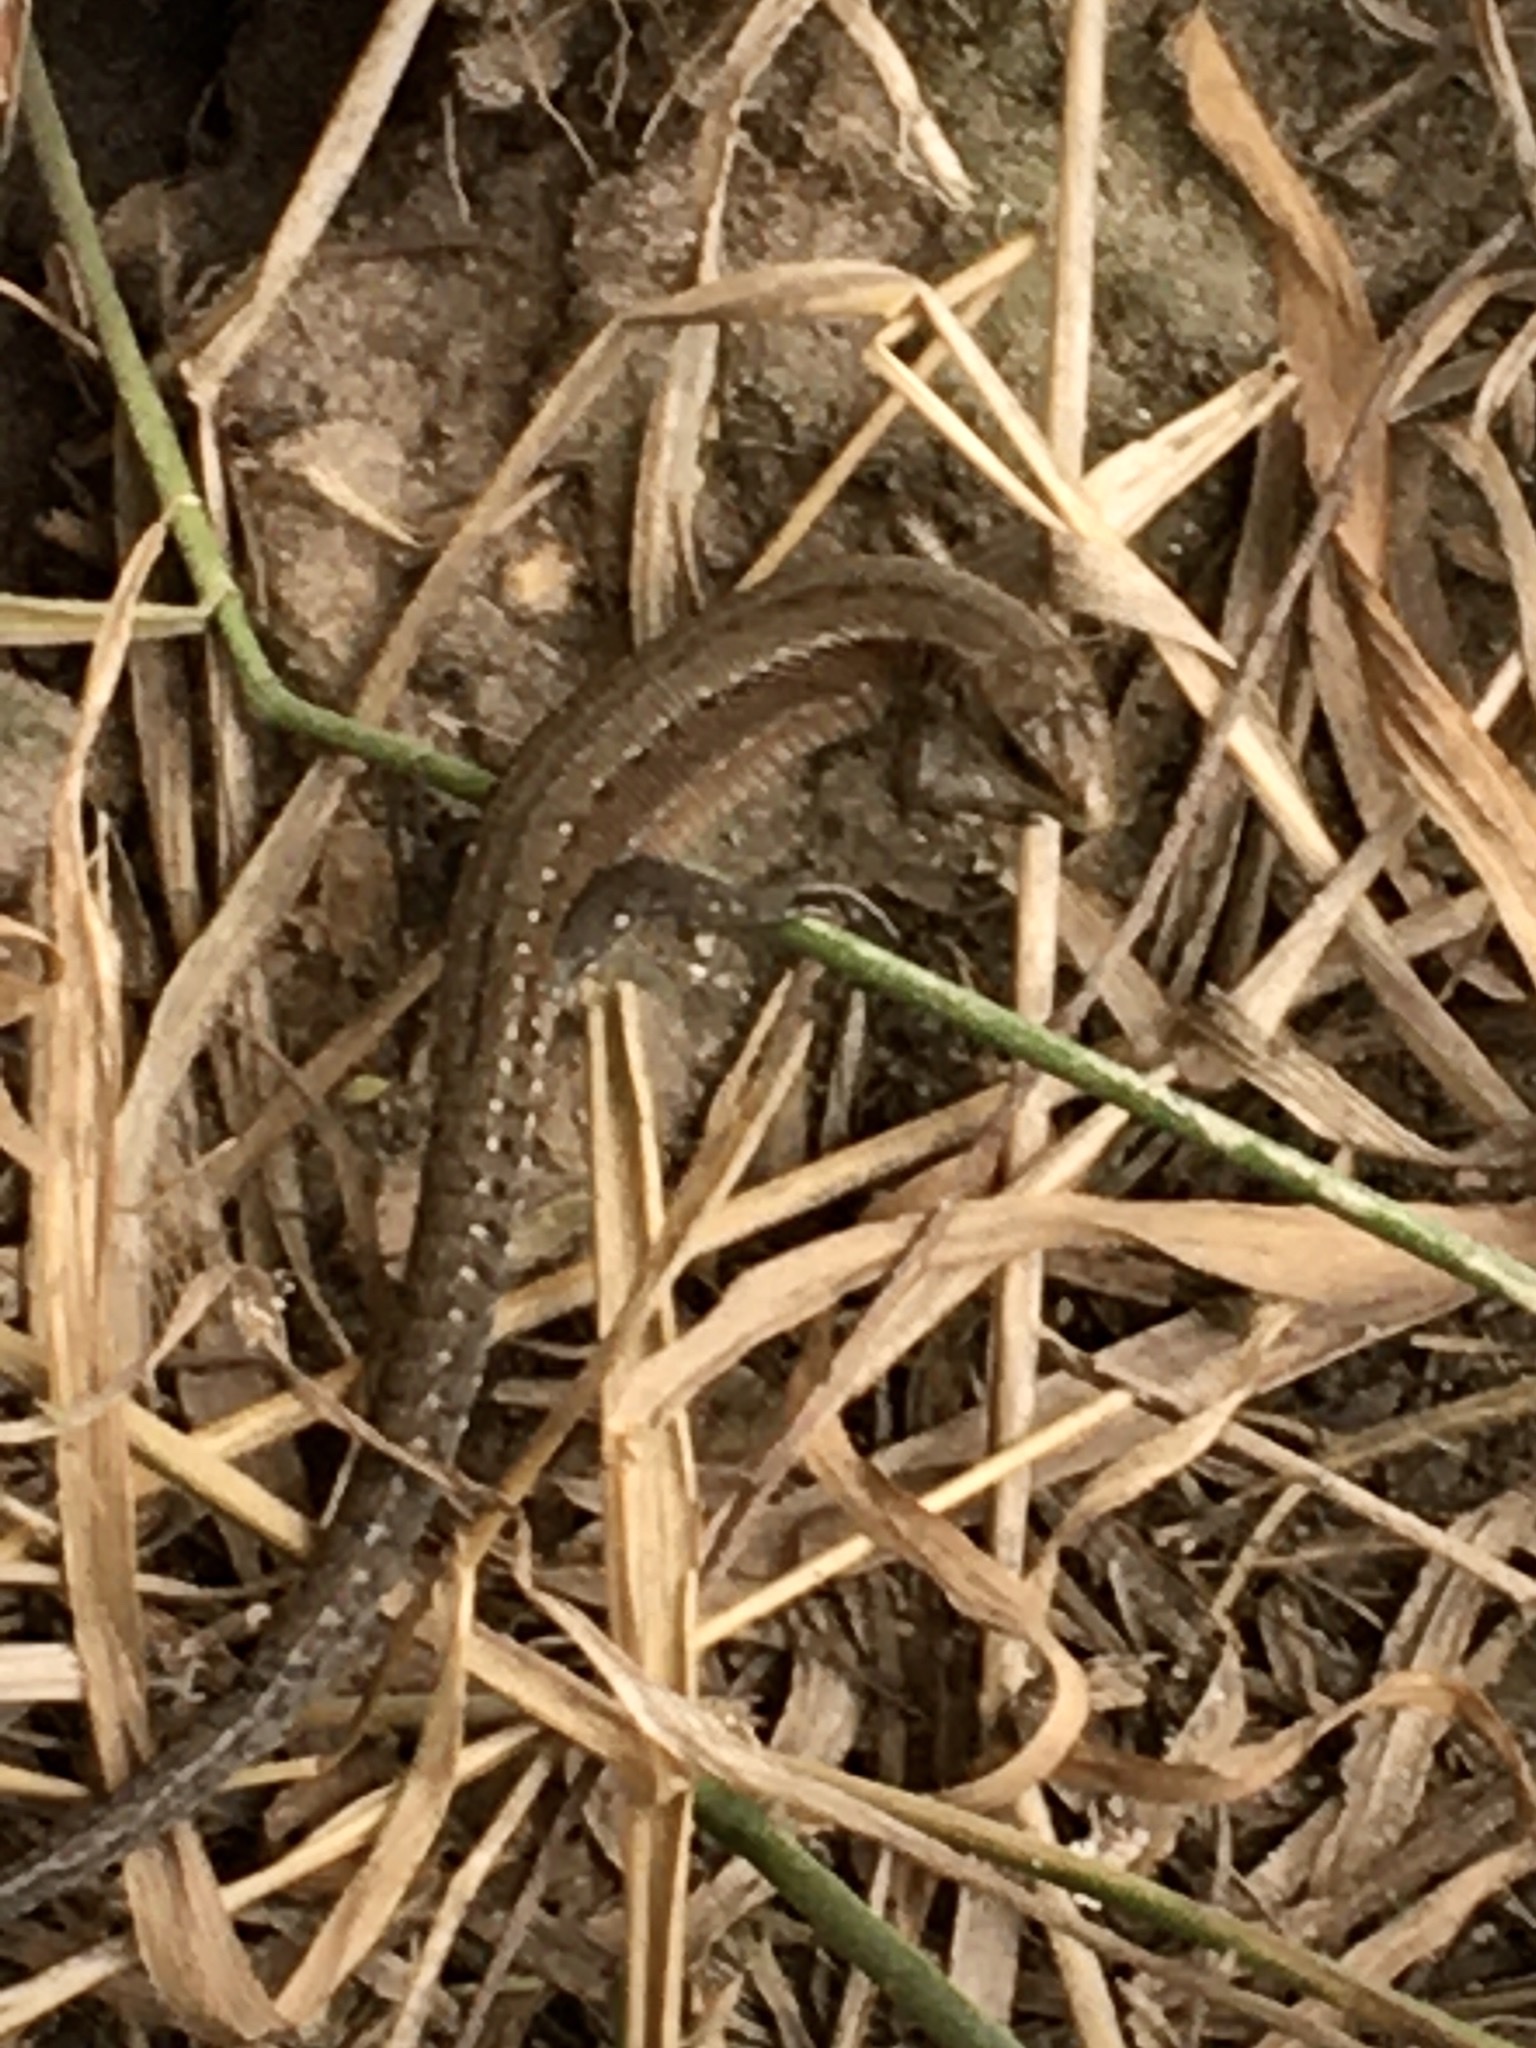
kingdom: Animalia
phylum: Chordata
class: Squamata
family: Lacertidae
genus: Zootoca
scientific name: Zootoca vivipara
